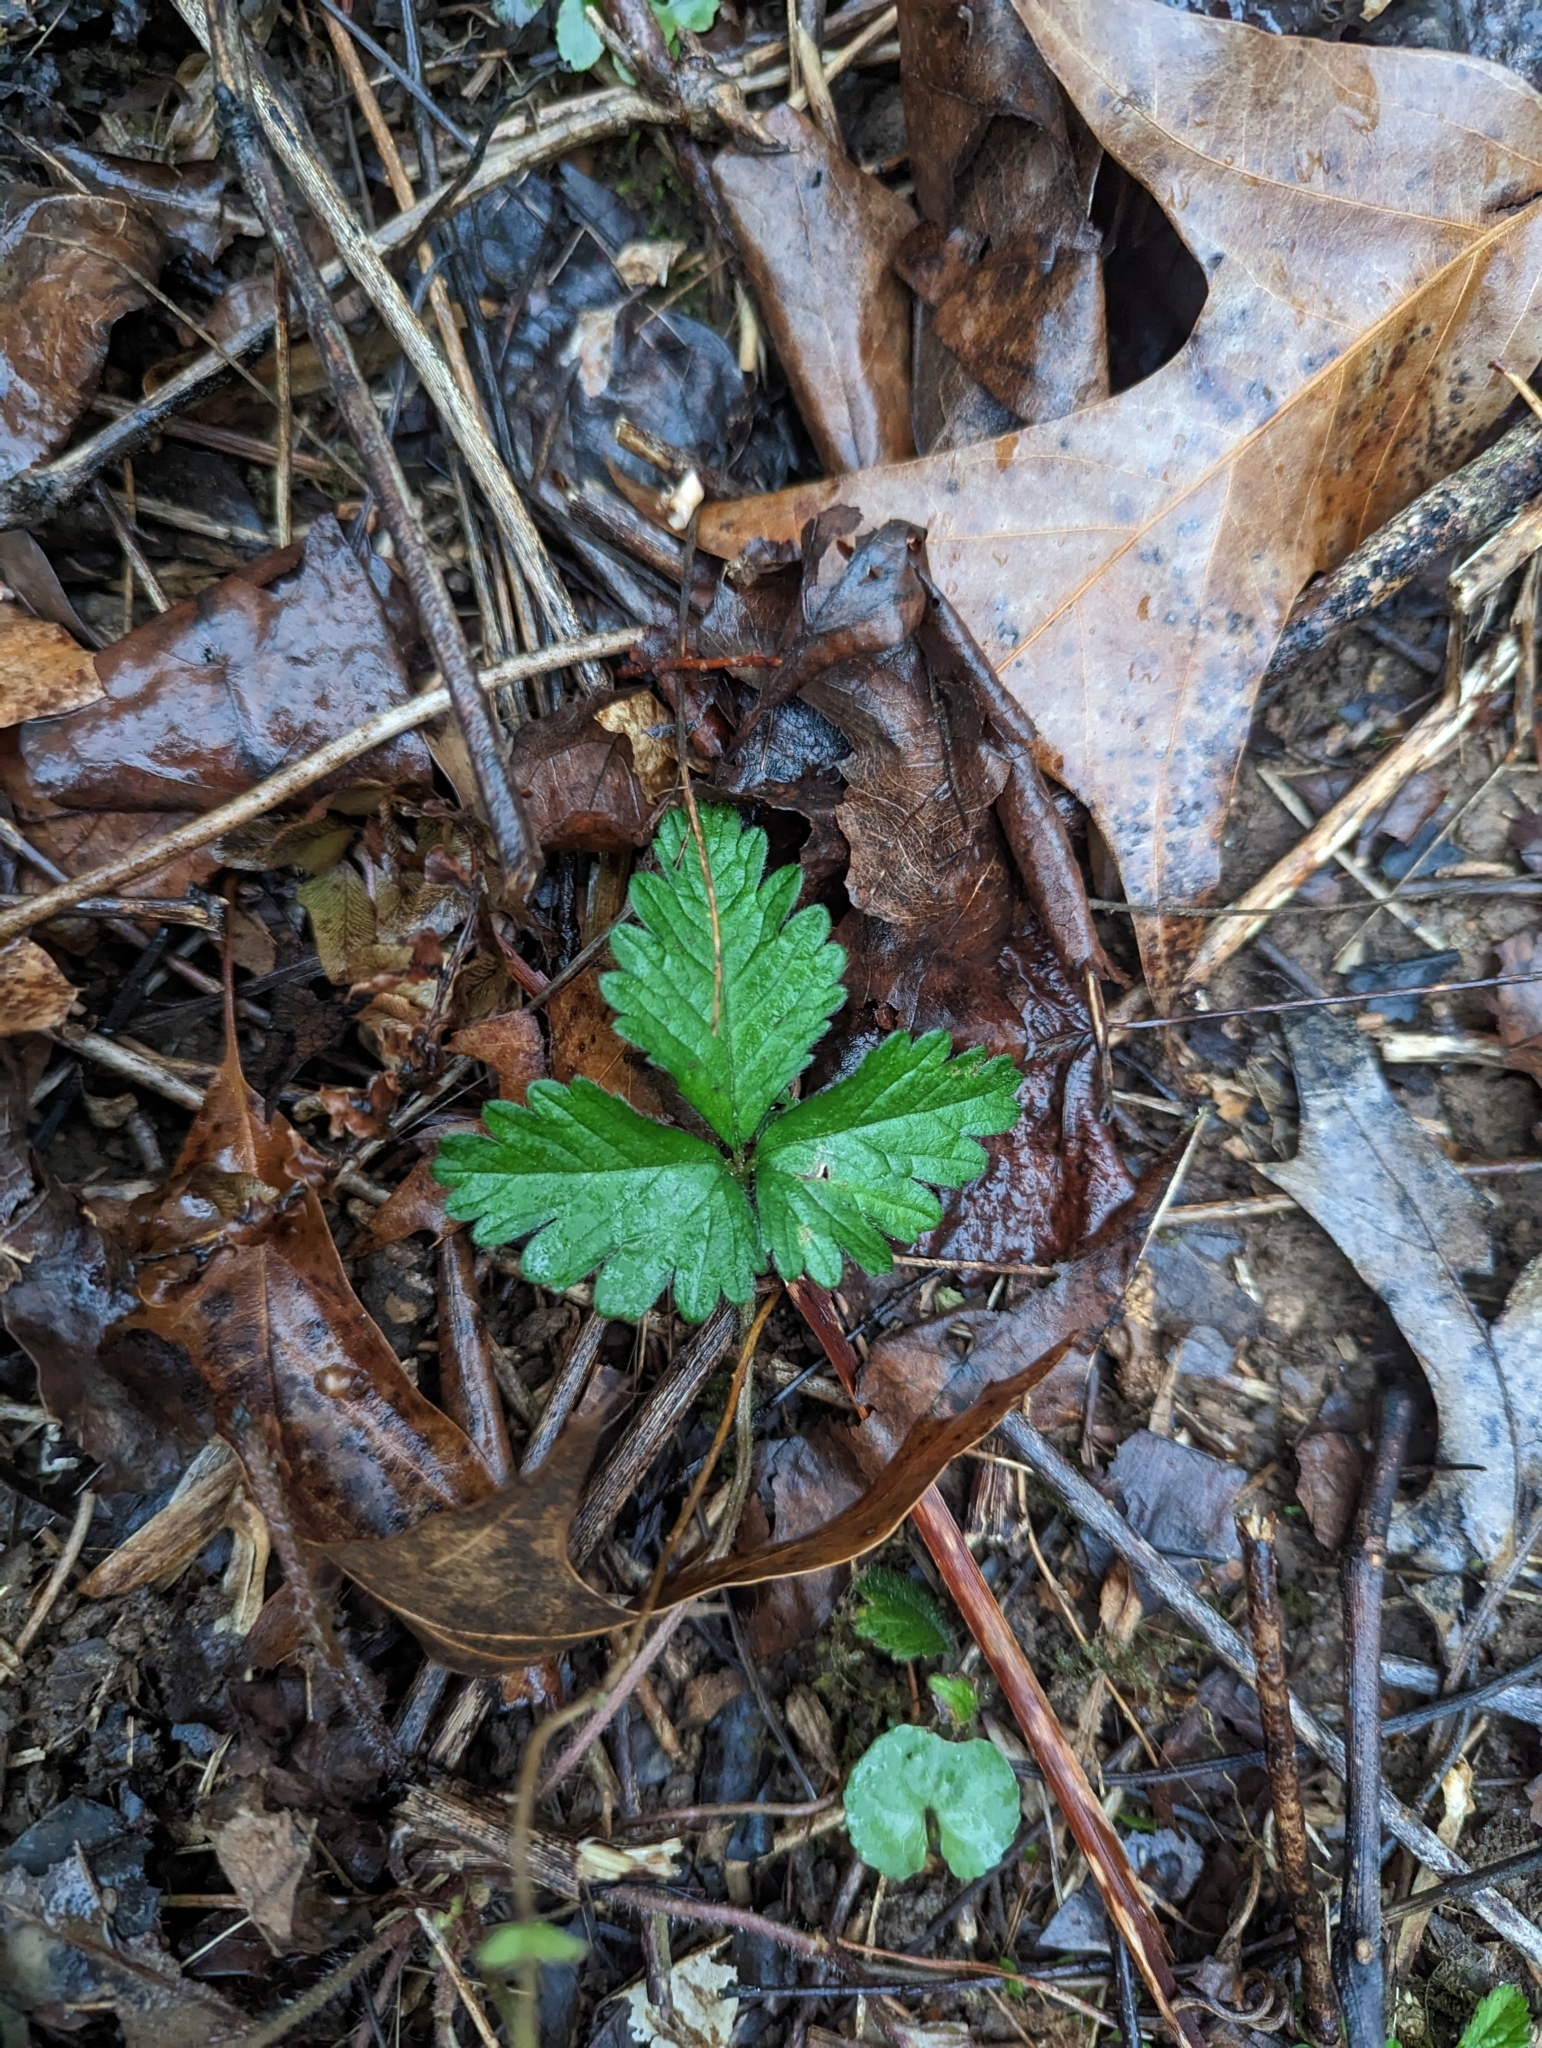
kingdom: Plantae
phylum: Tracheophyta
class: Magnoliopsida
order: Rosales
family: Rosaceae
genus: Potentilla
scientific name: Potentilla indica
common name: Yellow-flowered strawberry
